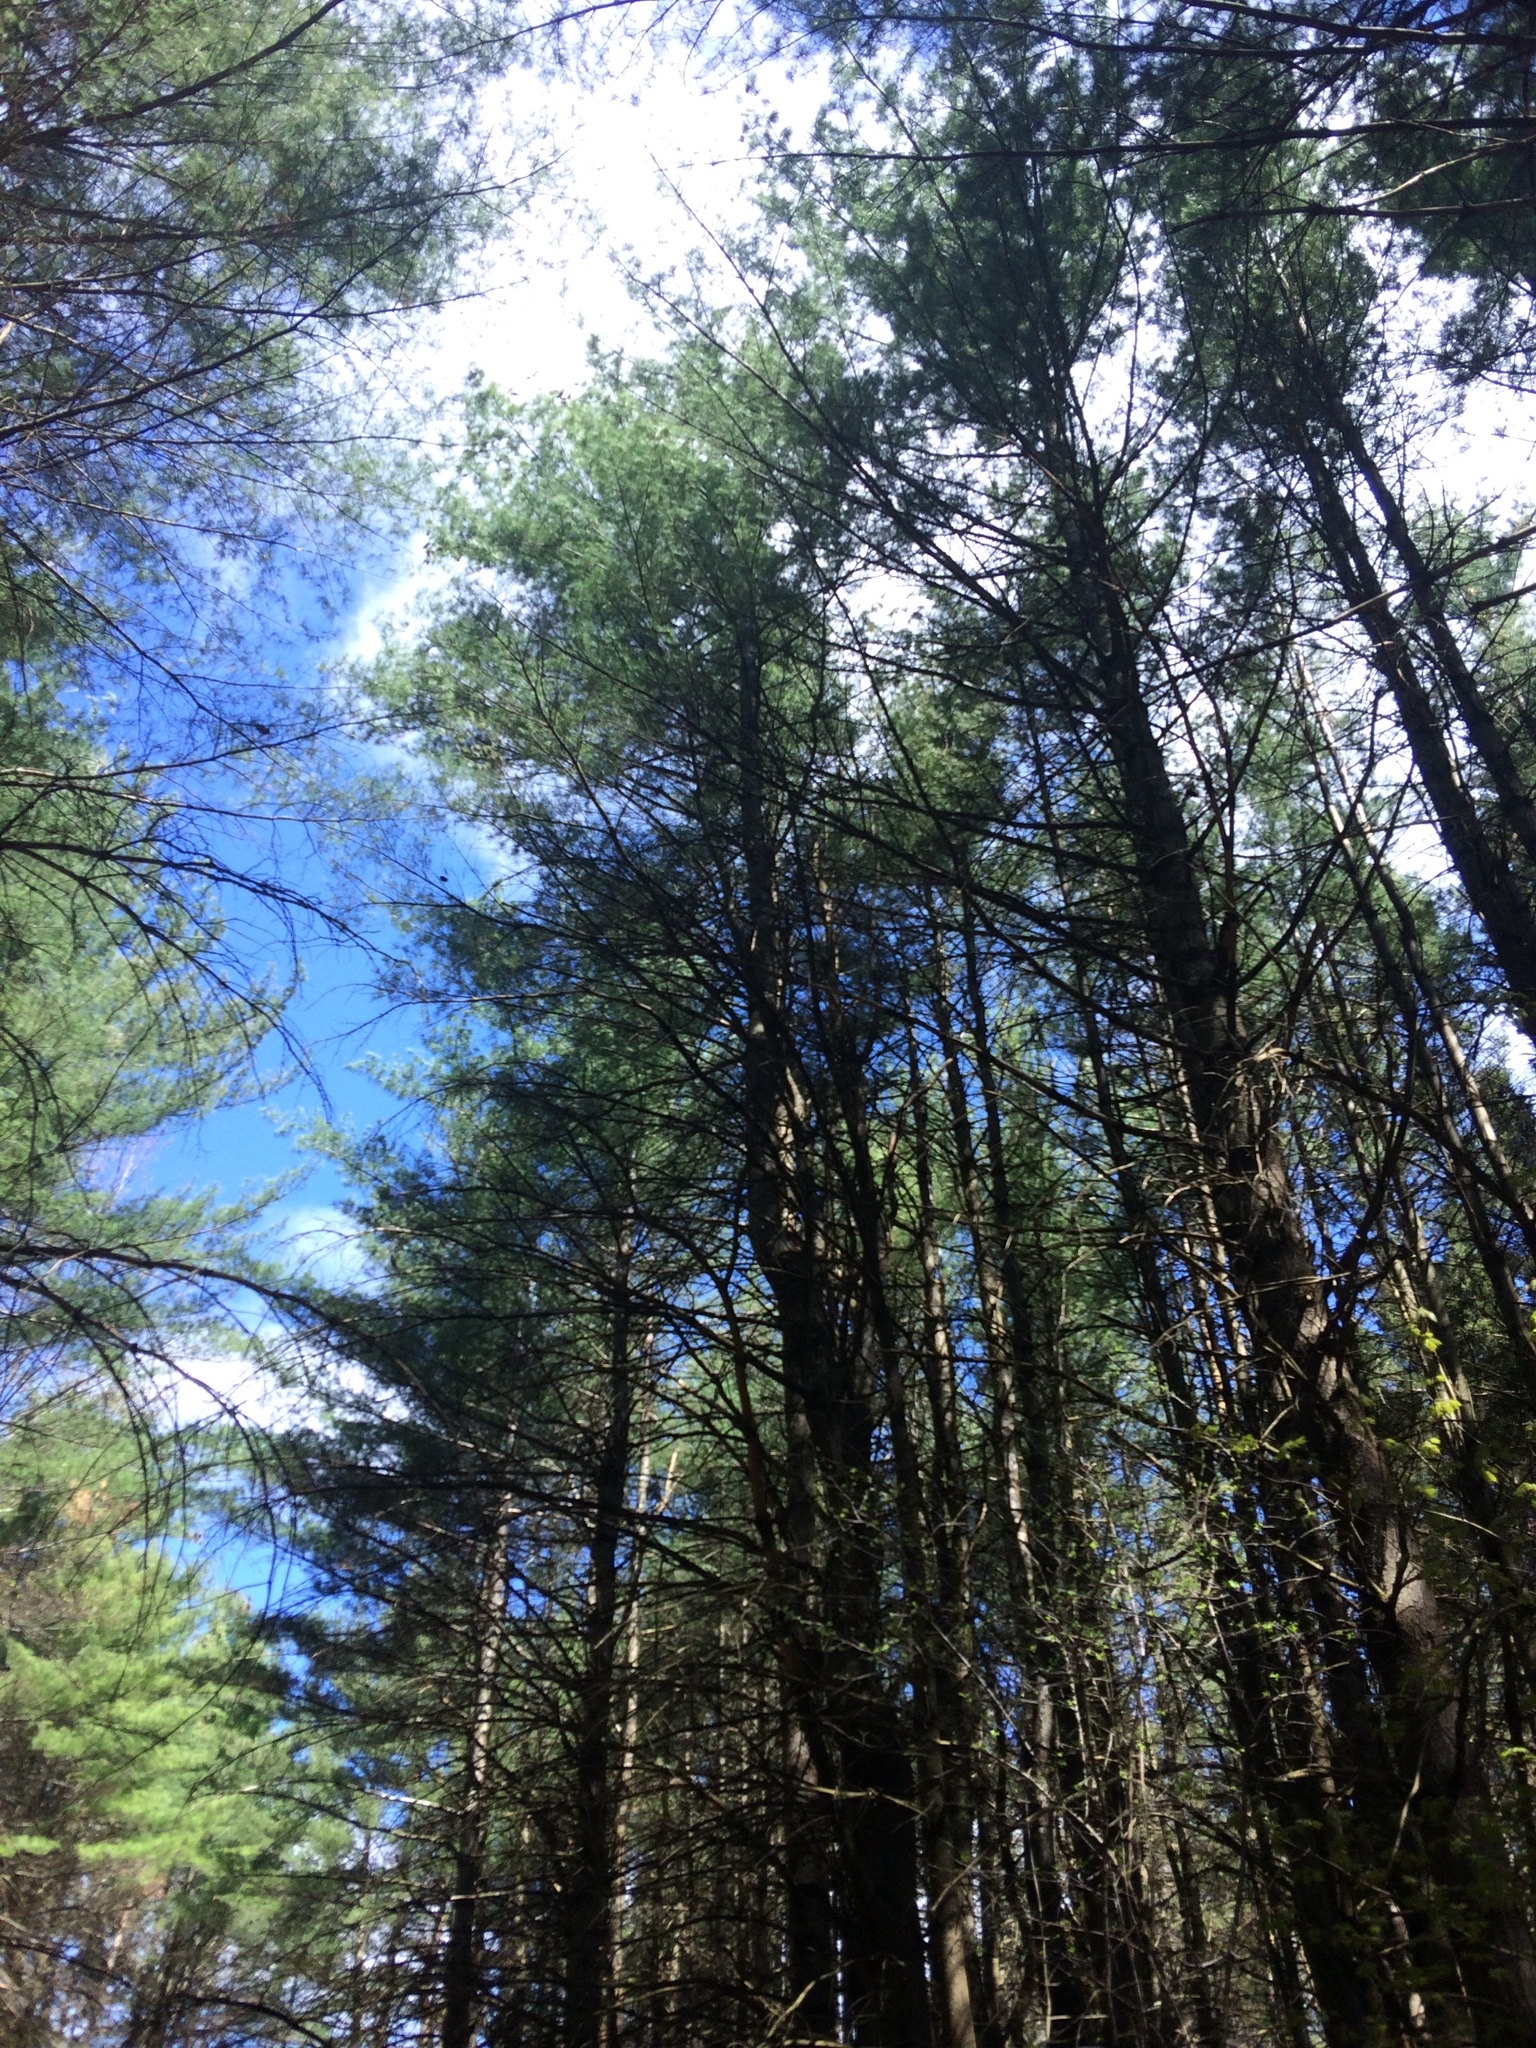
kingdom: Plantae
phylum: Tracheophyta
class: Pinopsida
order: Pinales
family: Pinaceae
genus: Pinus
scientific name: Pinus strobus
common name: Weymouth pine
